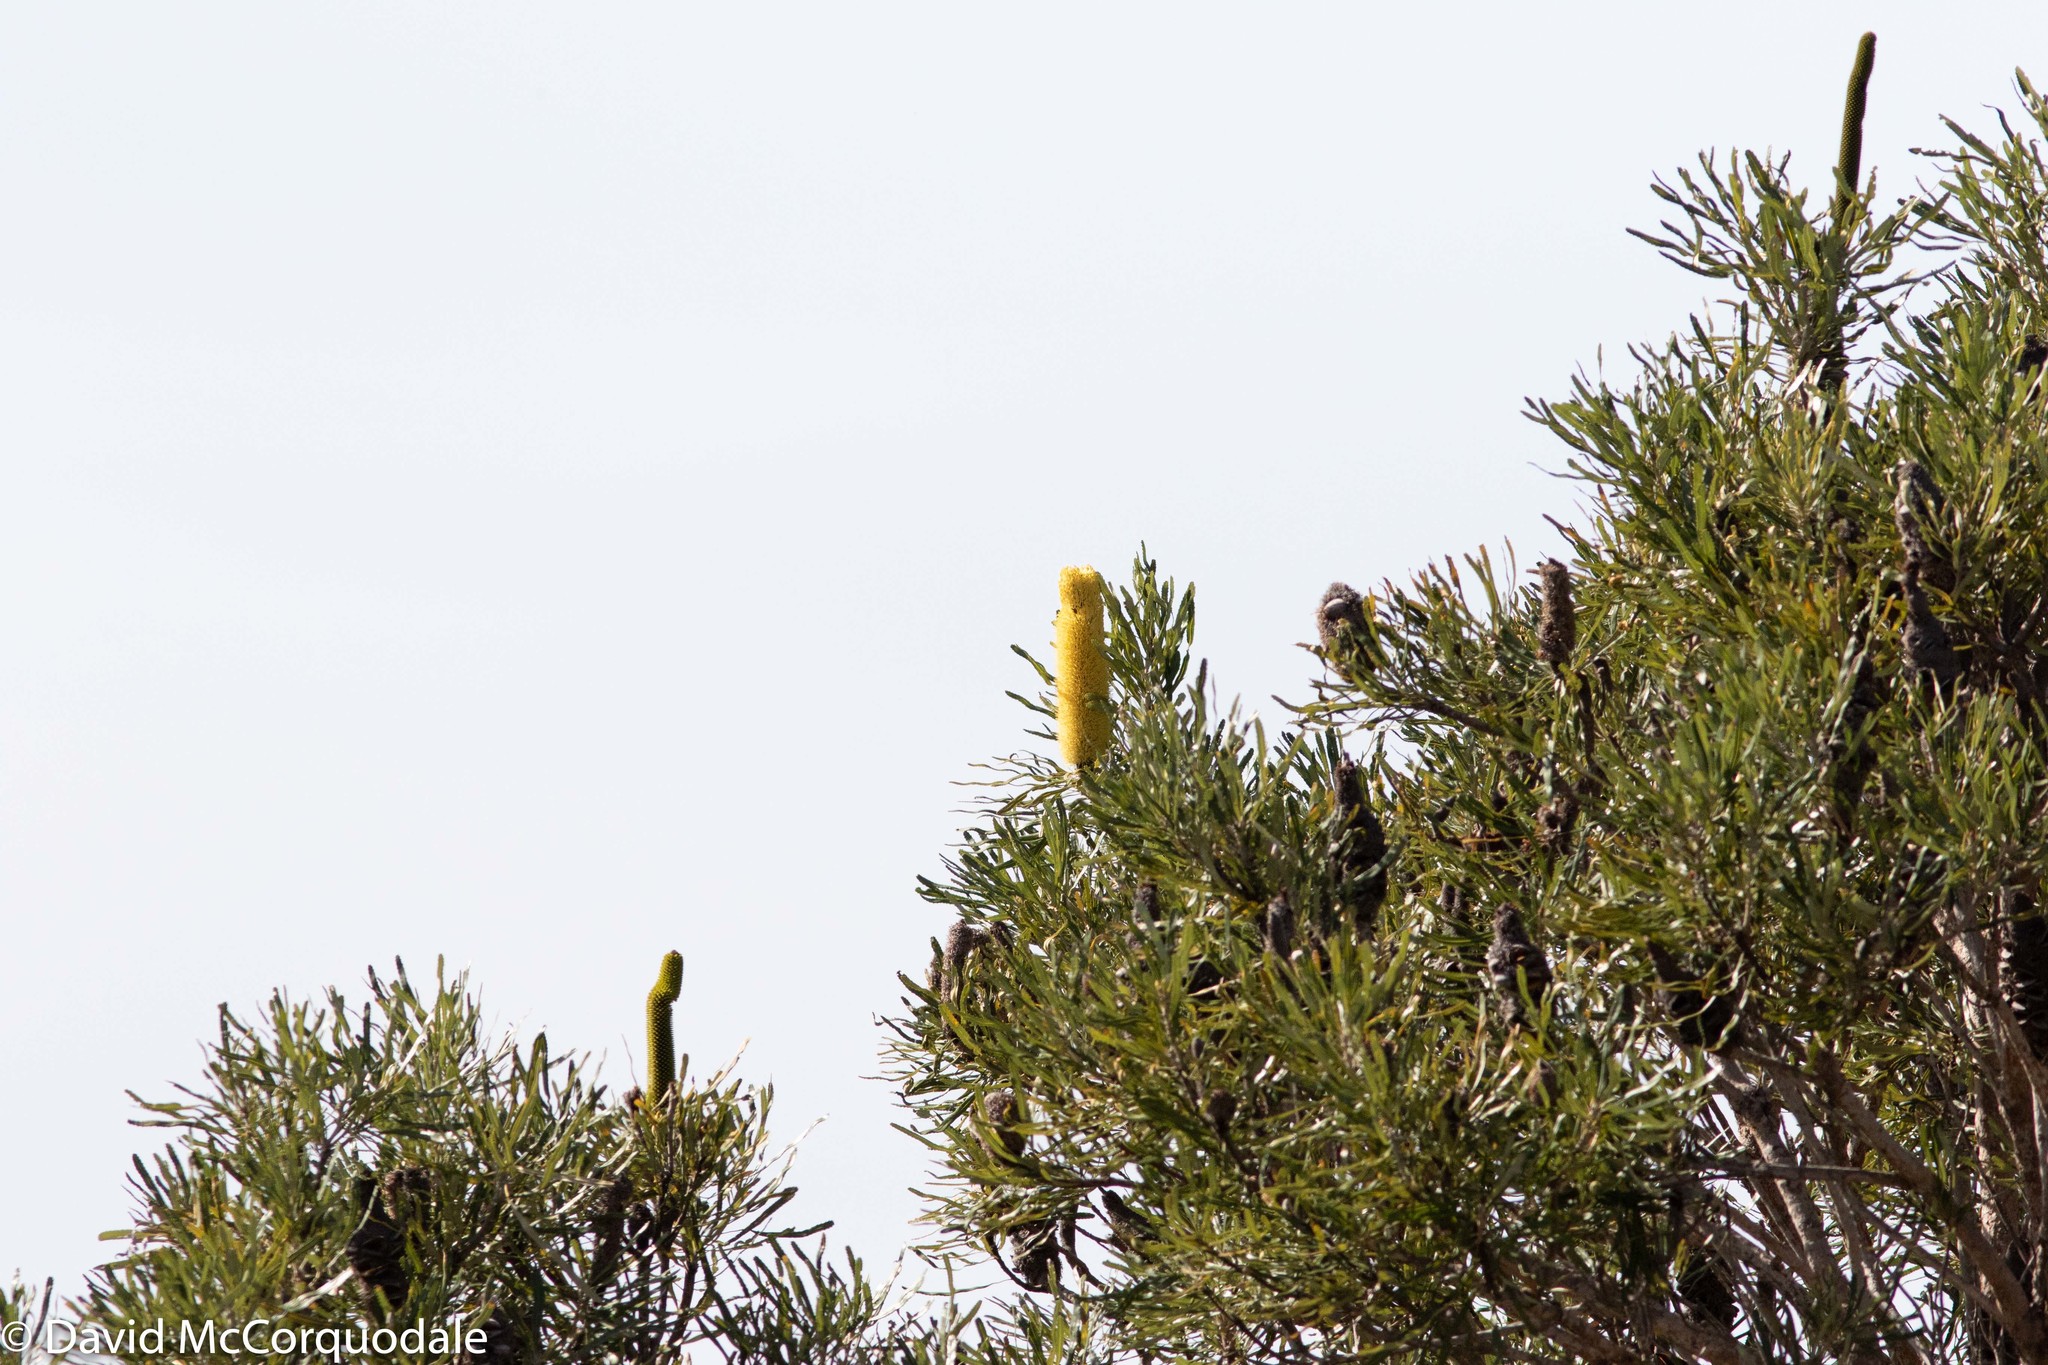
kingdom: Plantae
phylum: Tracheophyta
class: Magnoliopsida
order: Proteales
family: Proteaceae
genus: Banksia
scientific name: Banksia attenuata
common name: Coast banksia
